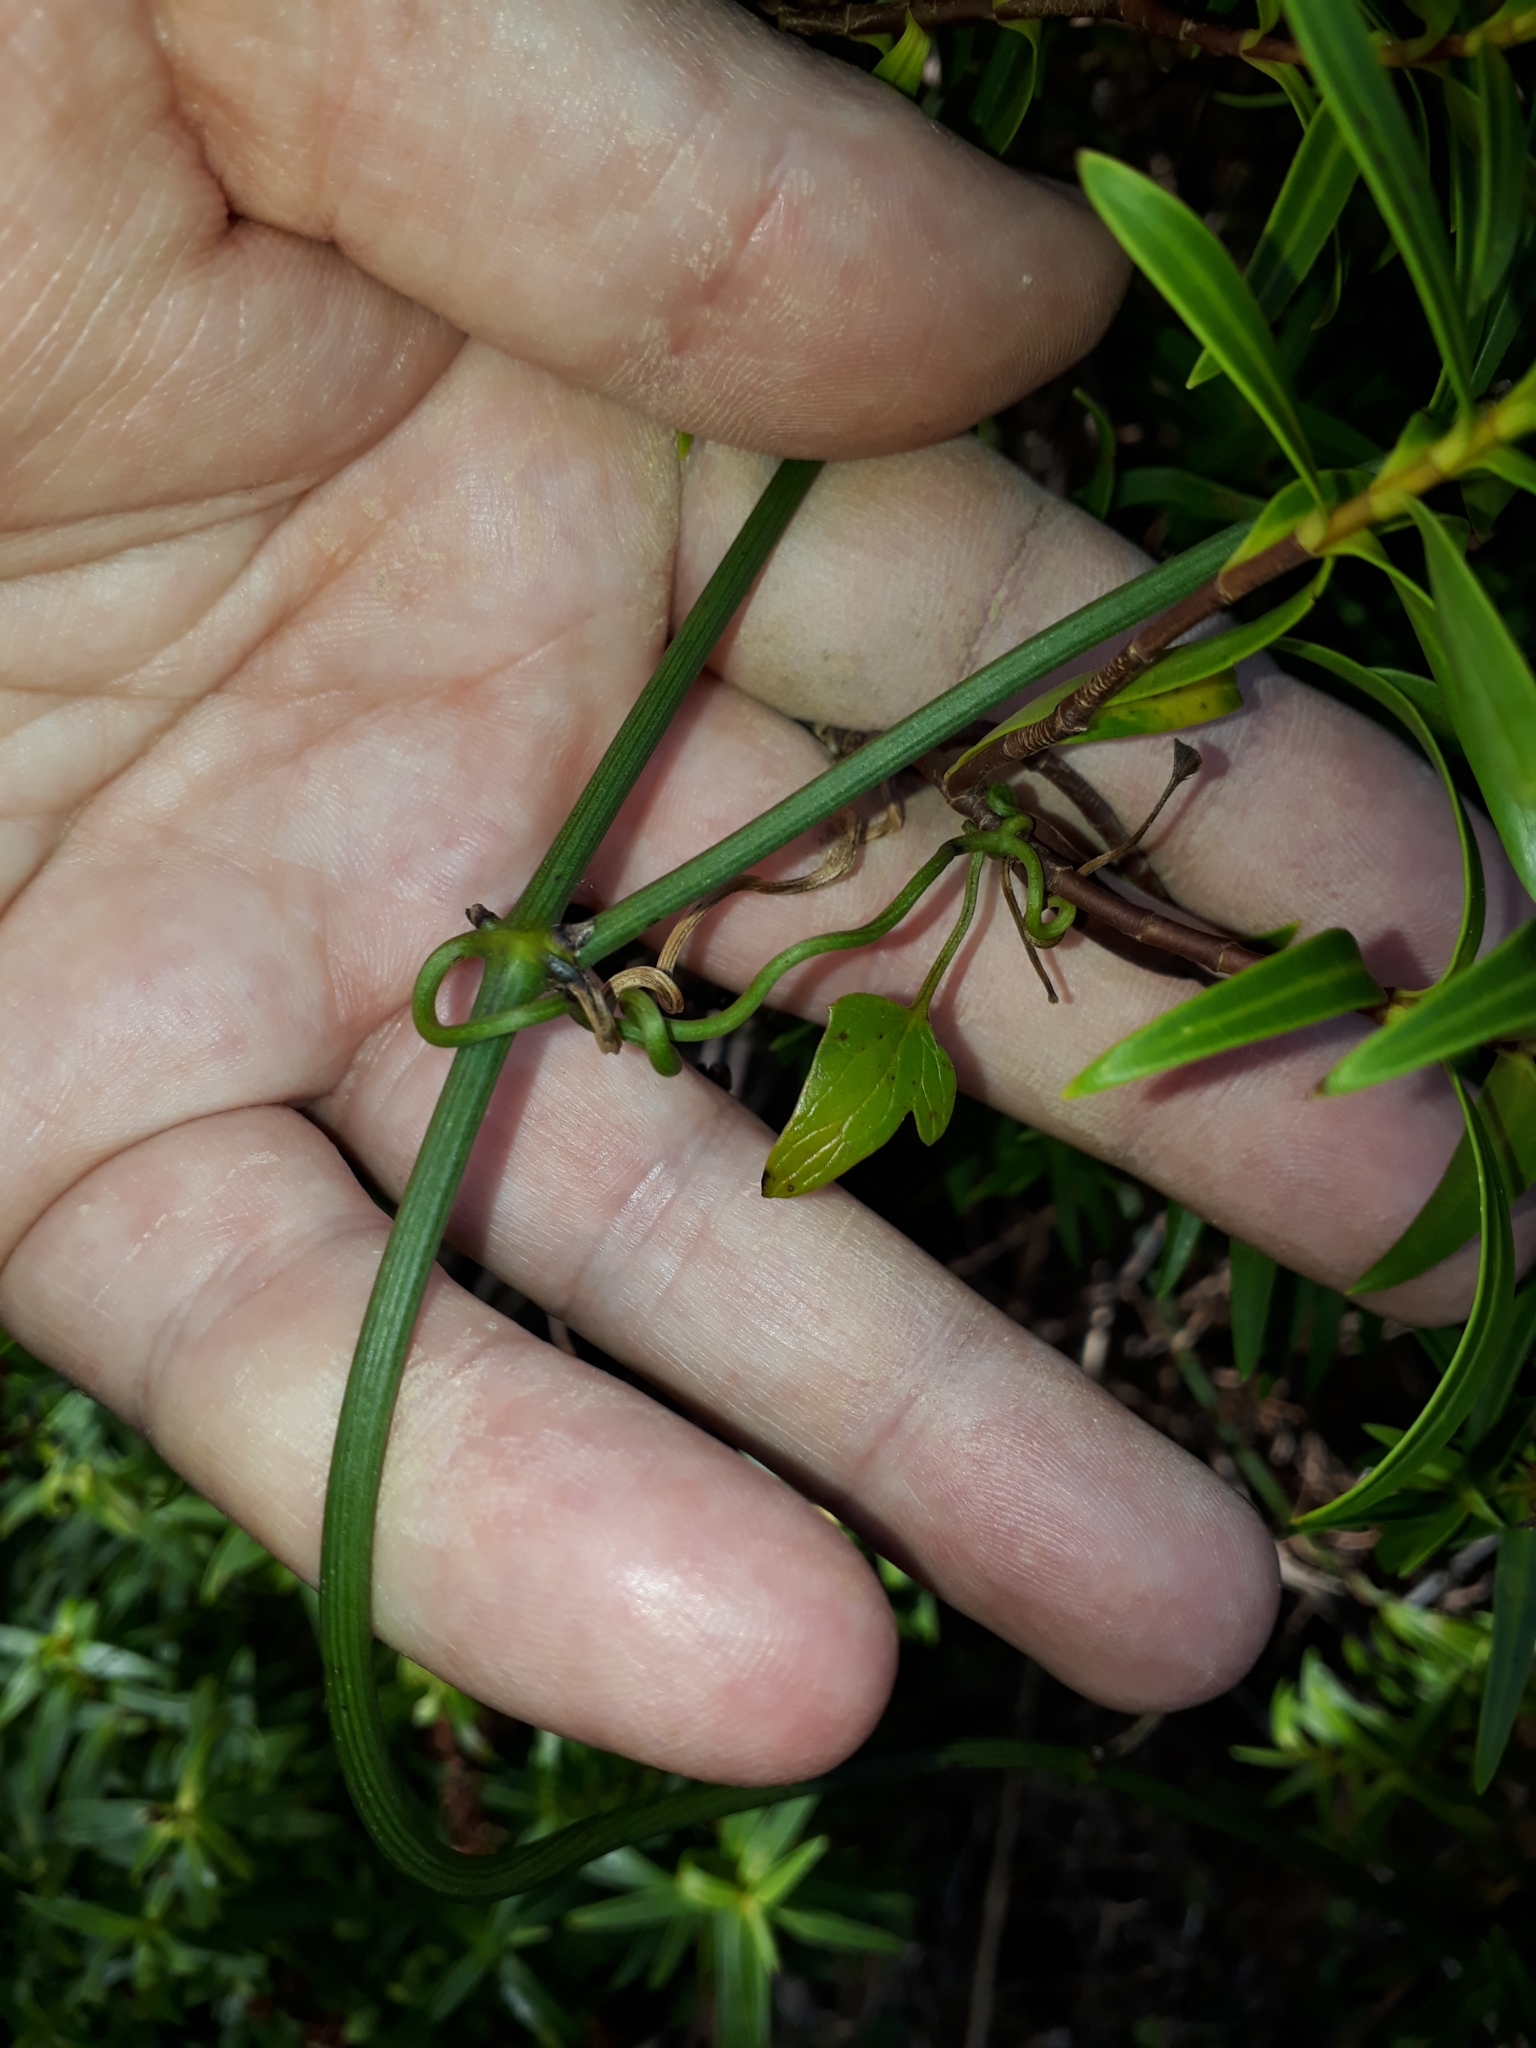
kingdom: Plantae
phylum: Tracheophyta
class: Magnoliopsida
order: Ranunculales
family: Ranunculaceae
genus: Clematis
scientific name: Clematis afoliata
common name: Rush-stem clematis
